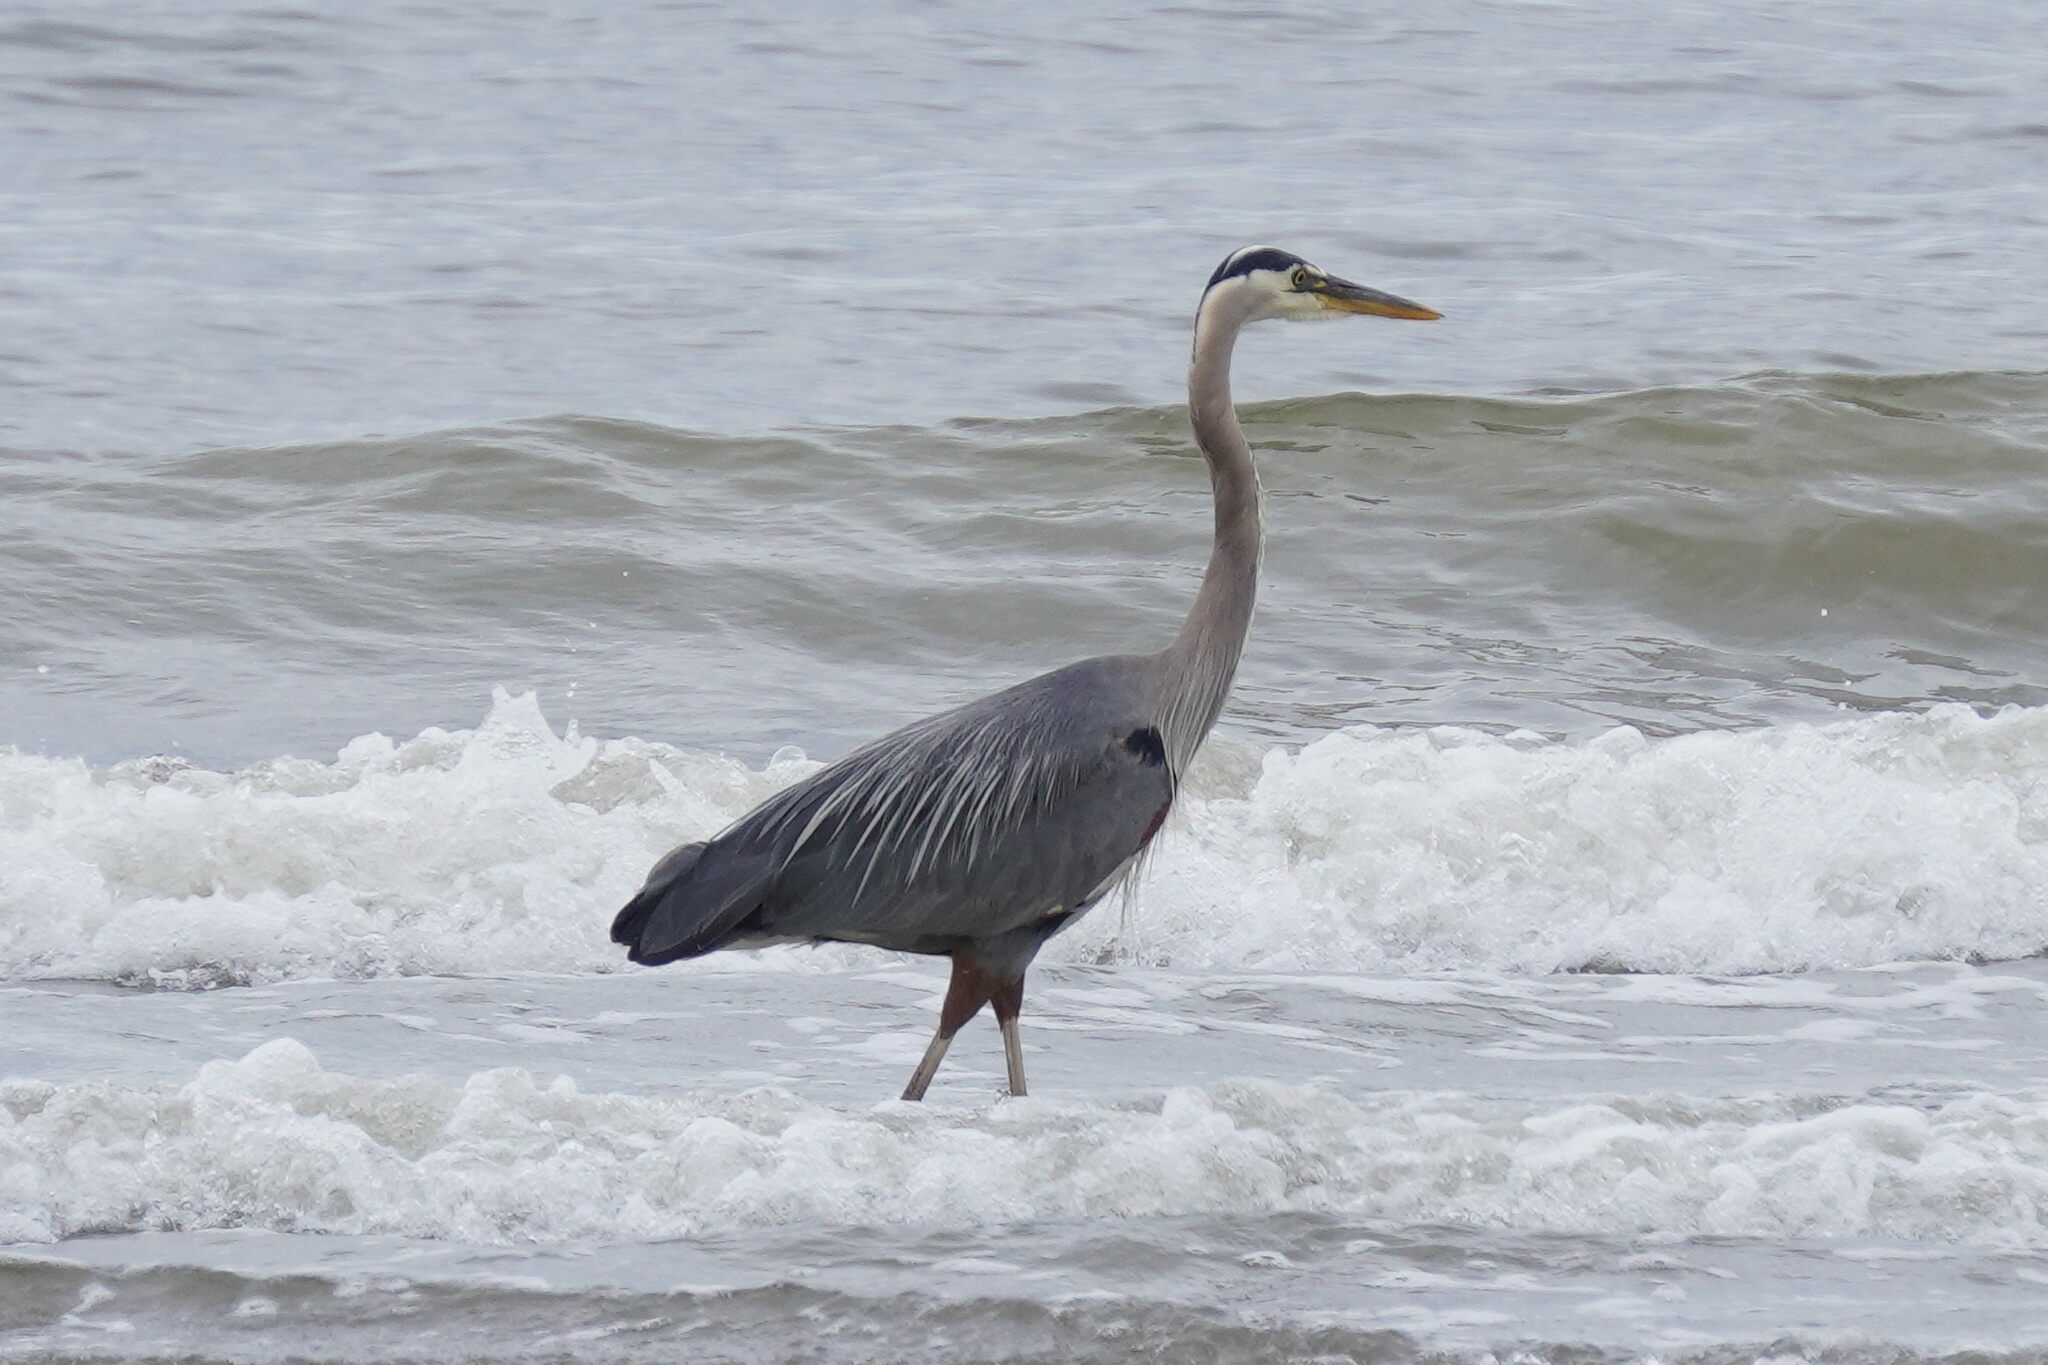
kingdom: Animalia
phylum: Chordata
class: Aves
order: Pelecaniformes
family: Ardeidae
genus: Ardea
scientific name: Ardea herodias
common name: Great blue heron
